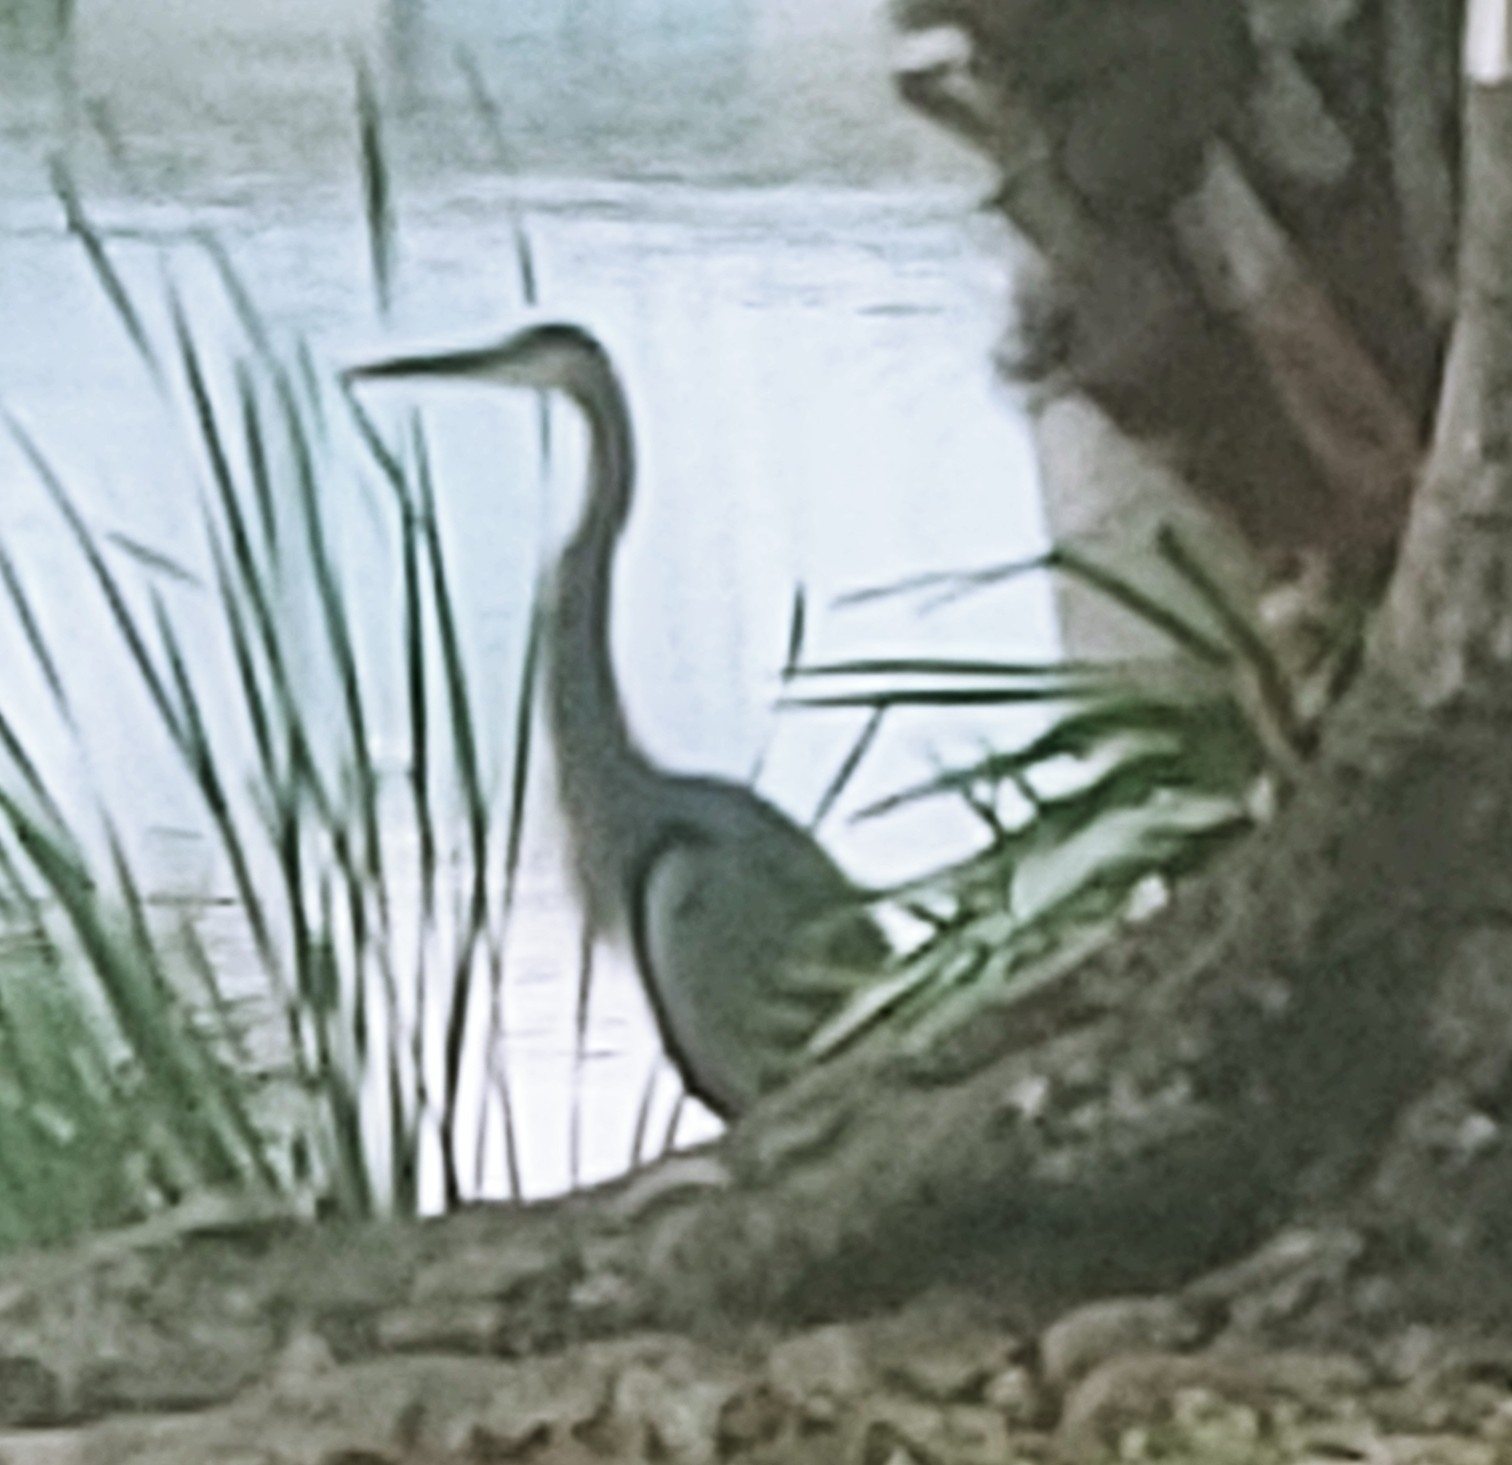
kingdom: Animalia
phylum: Chordata
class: Aves
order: Pelecaniformes
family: Ardeidae
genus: Ardea
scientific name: Ardea herodias
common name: Great blue heron
